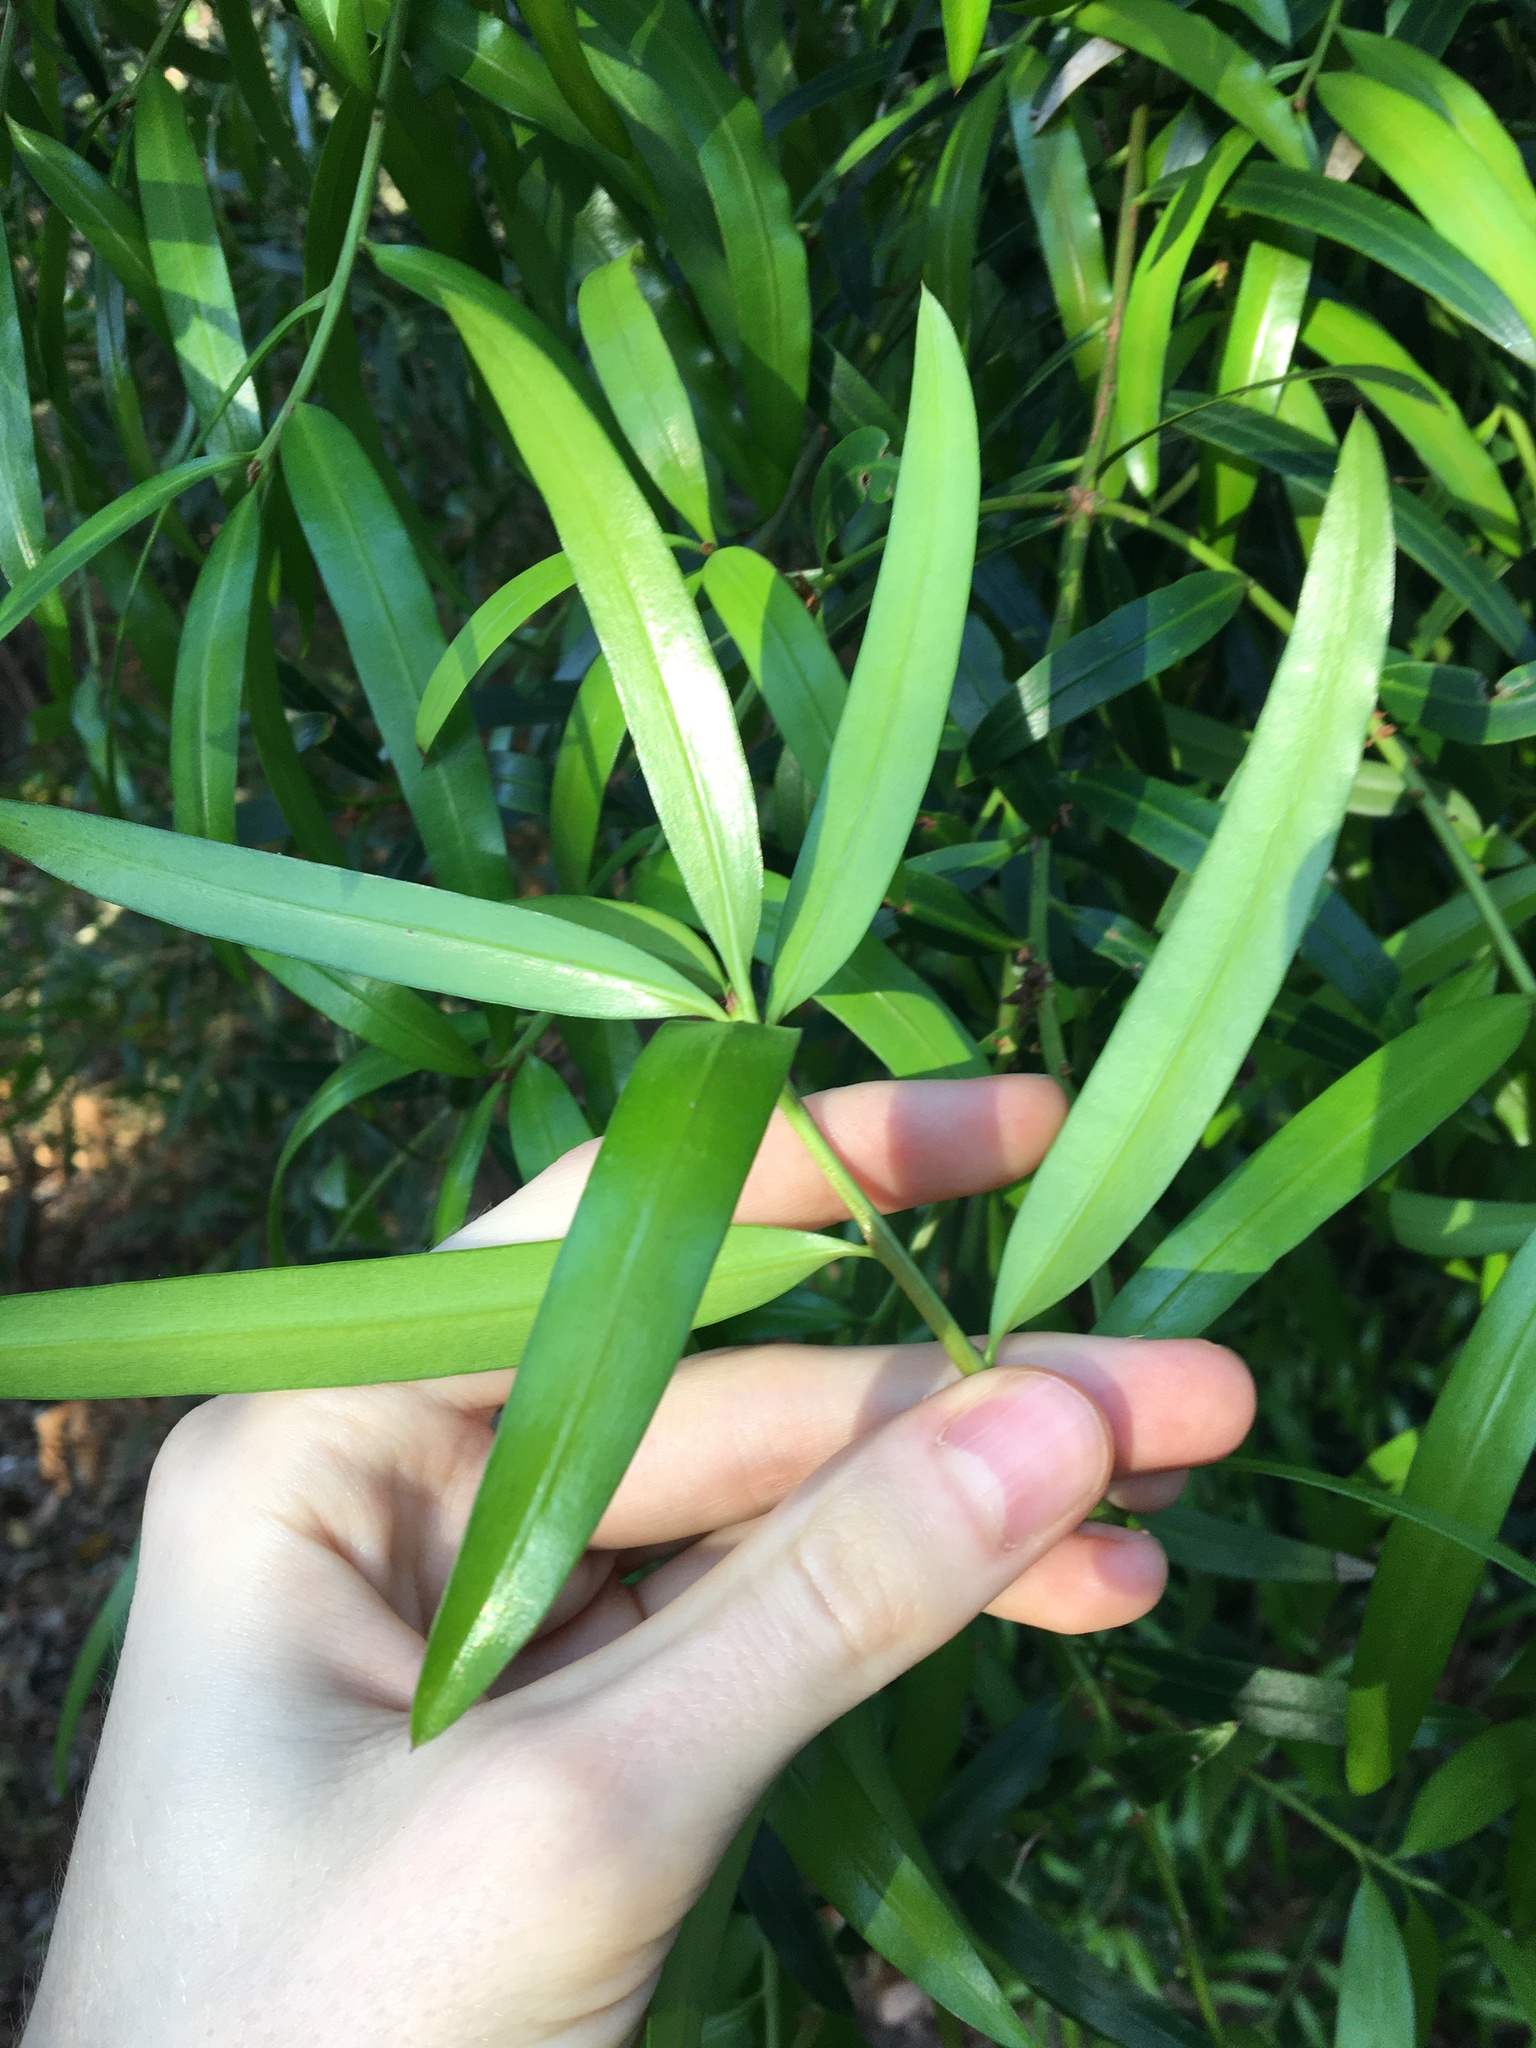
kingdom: Plantae
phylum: Tracheophyta
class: Pinopsida
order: Pinales
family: Podocarpaceae
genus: Podocarpus
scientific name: Podocarpus elatus
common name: Plum pine
